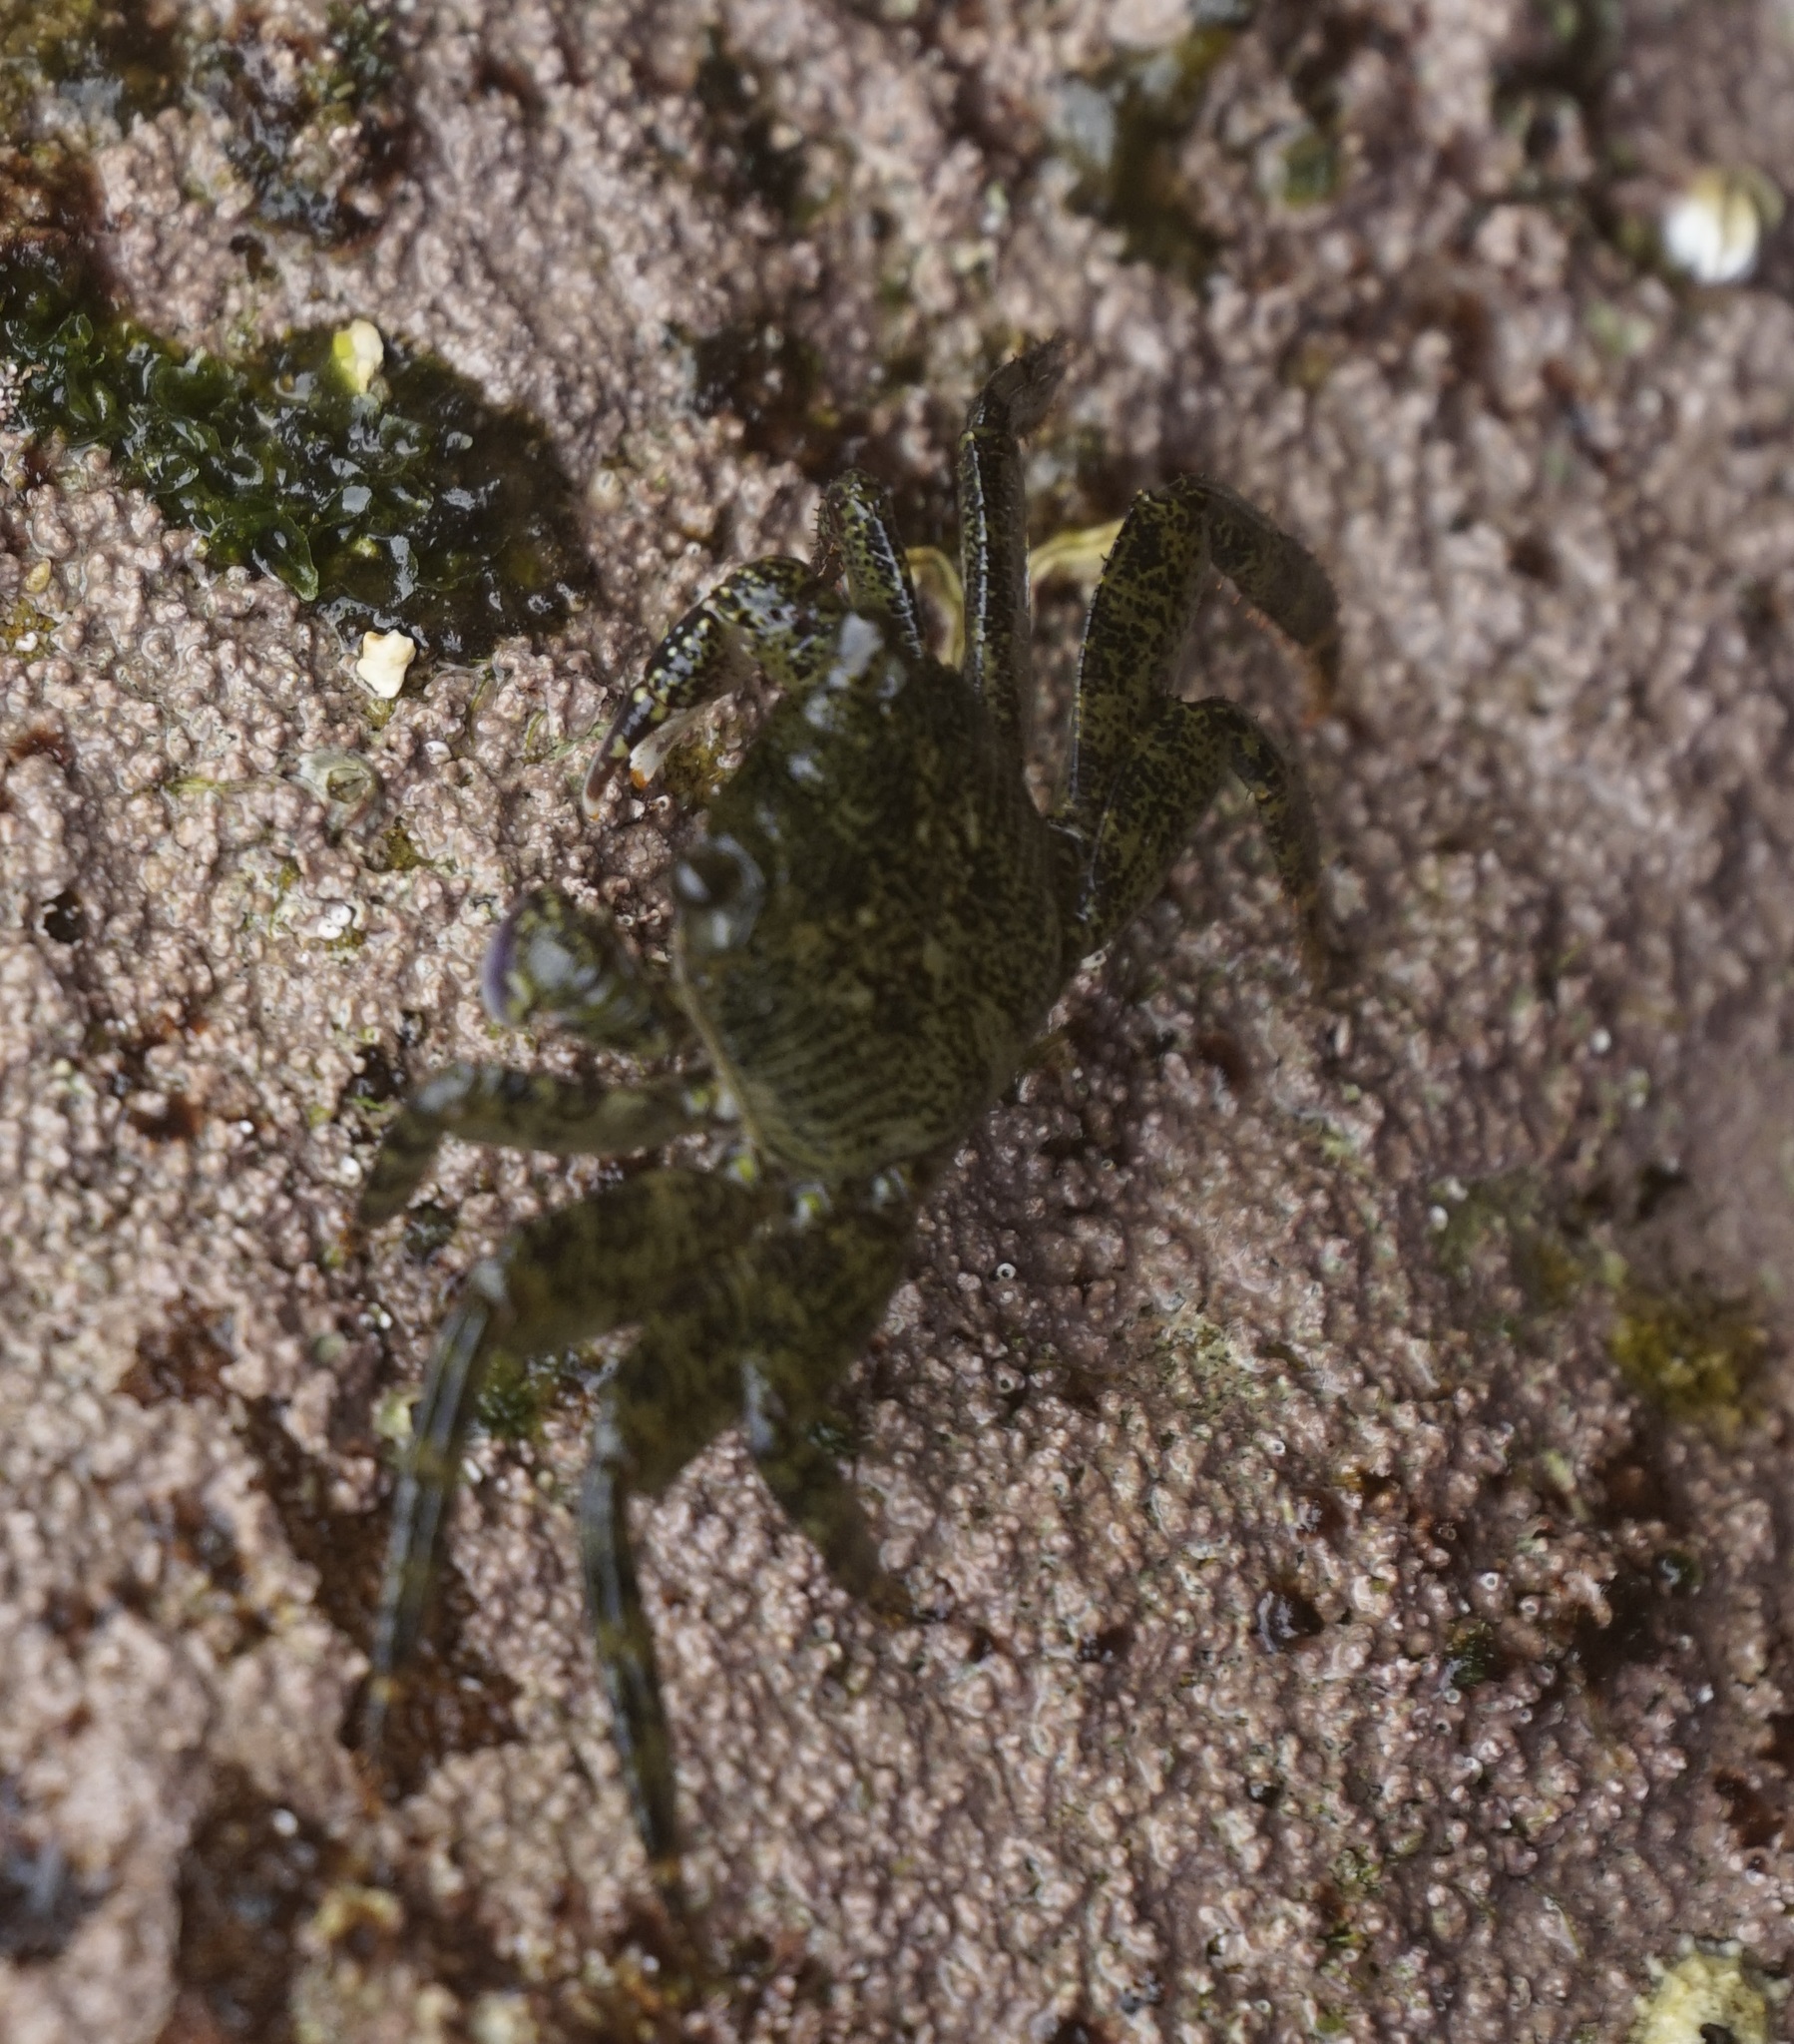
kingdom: Animalia
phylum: Arthropoda
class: Malacostraca
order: Decapoda
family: Grapsidae
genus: Leptograpsus
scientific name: Leptograpsus variegatus
